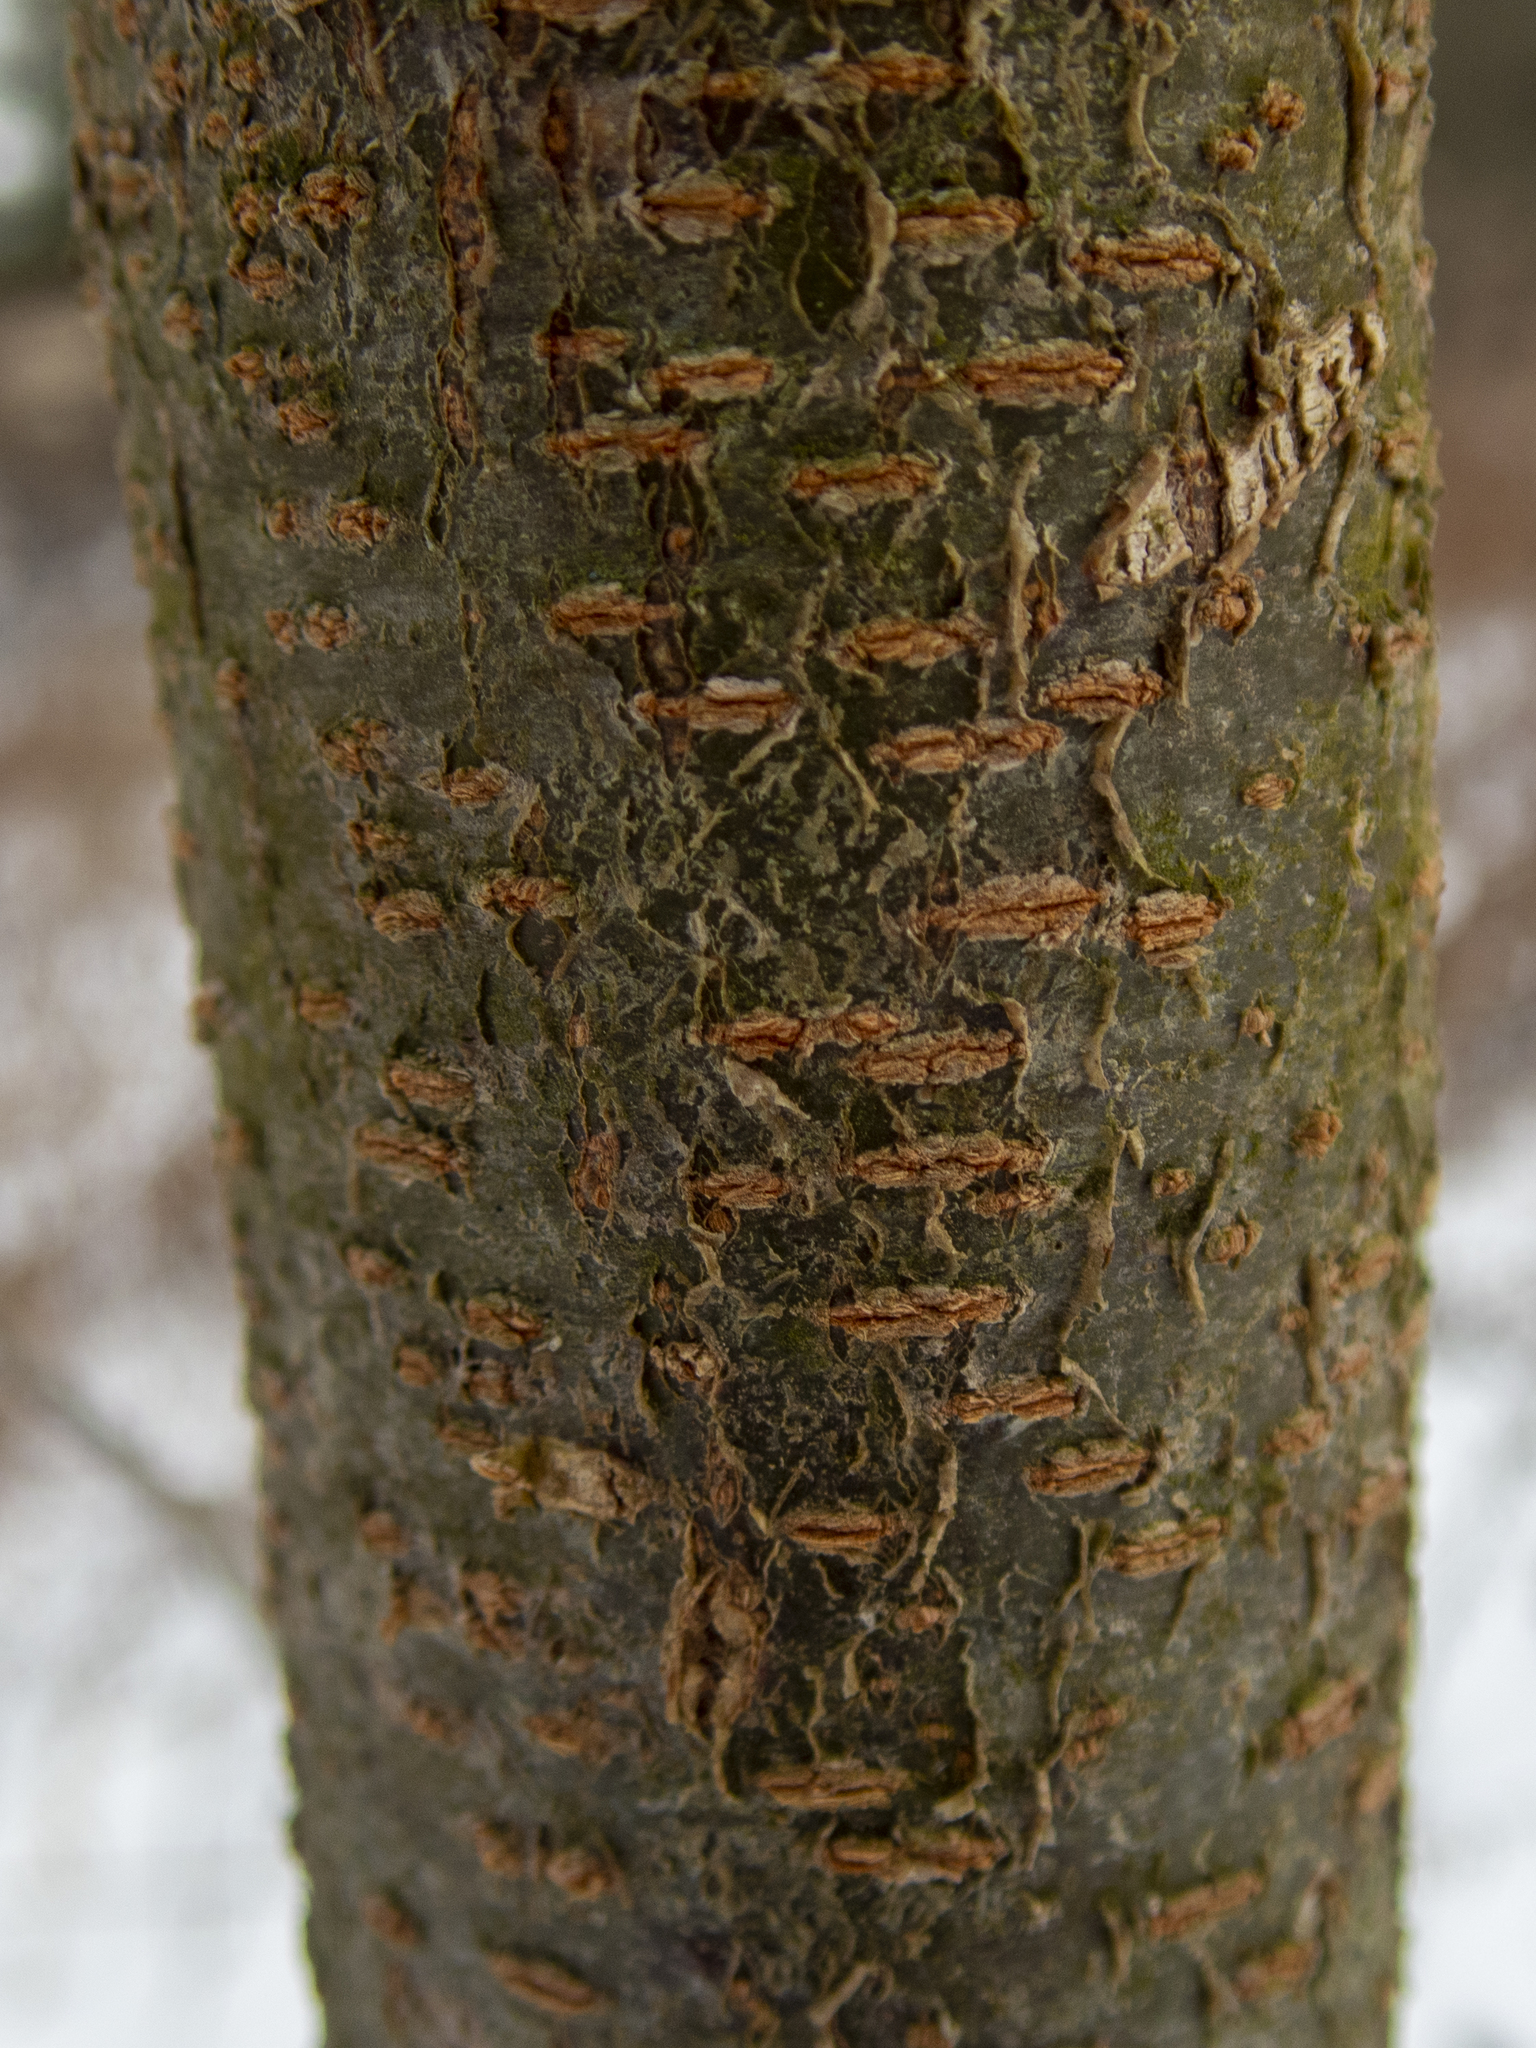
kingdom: Plantae
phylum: Tracheophyta
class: Magnoliopsida
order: Fabales
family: Fabaceae
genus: Gleditsia
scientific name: Gleditsia triacanthos
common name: Common honeylocust
